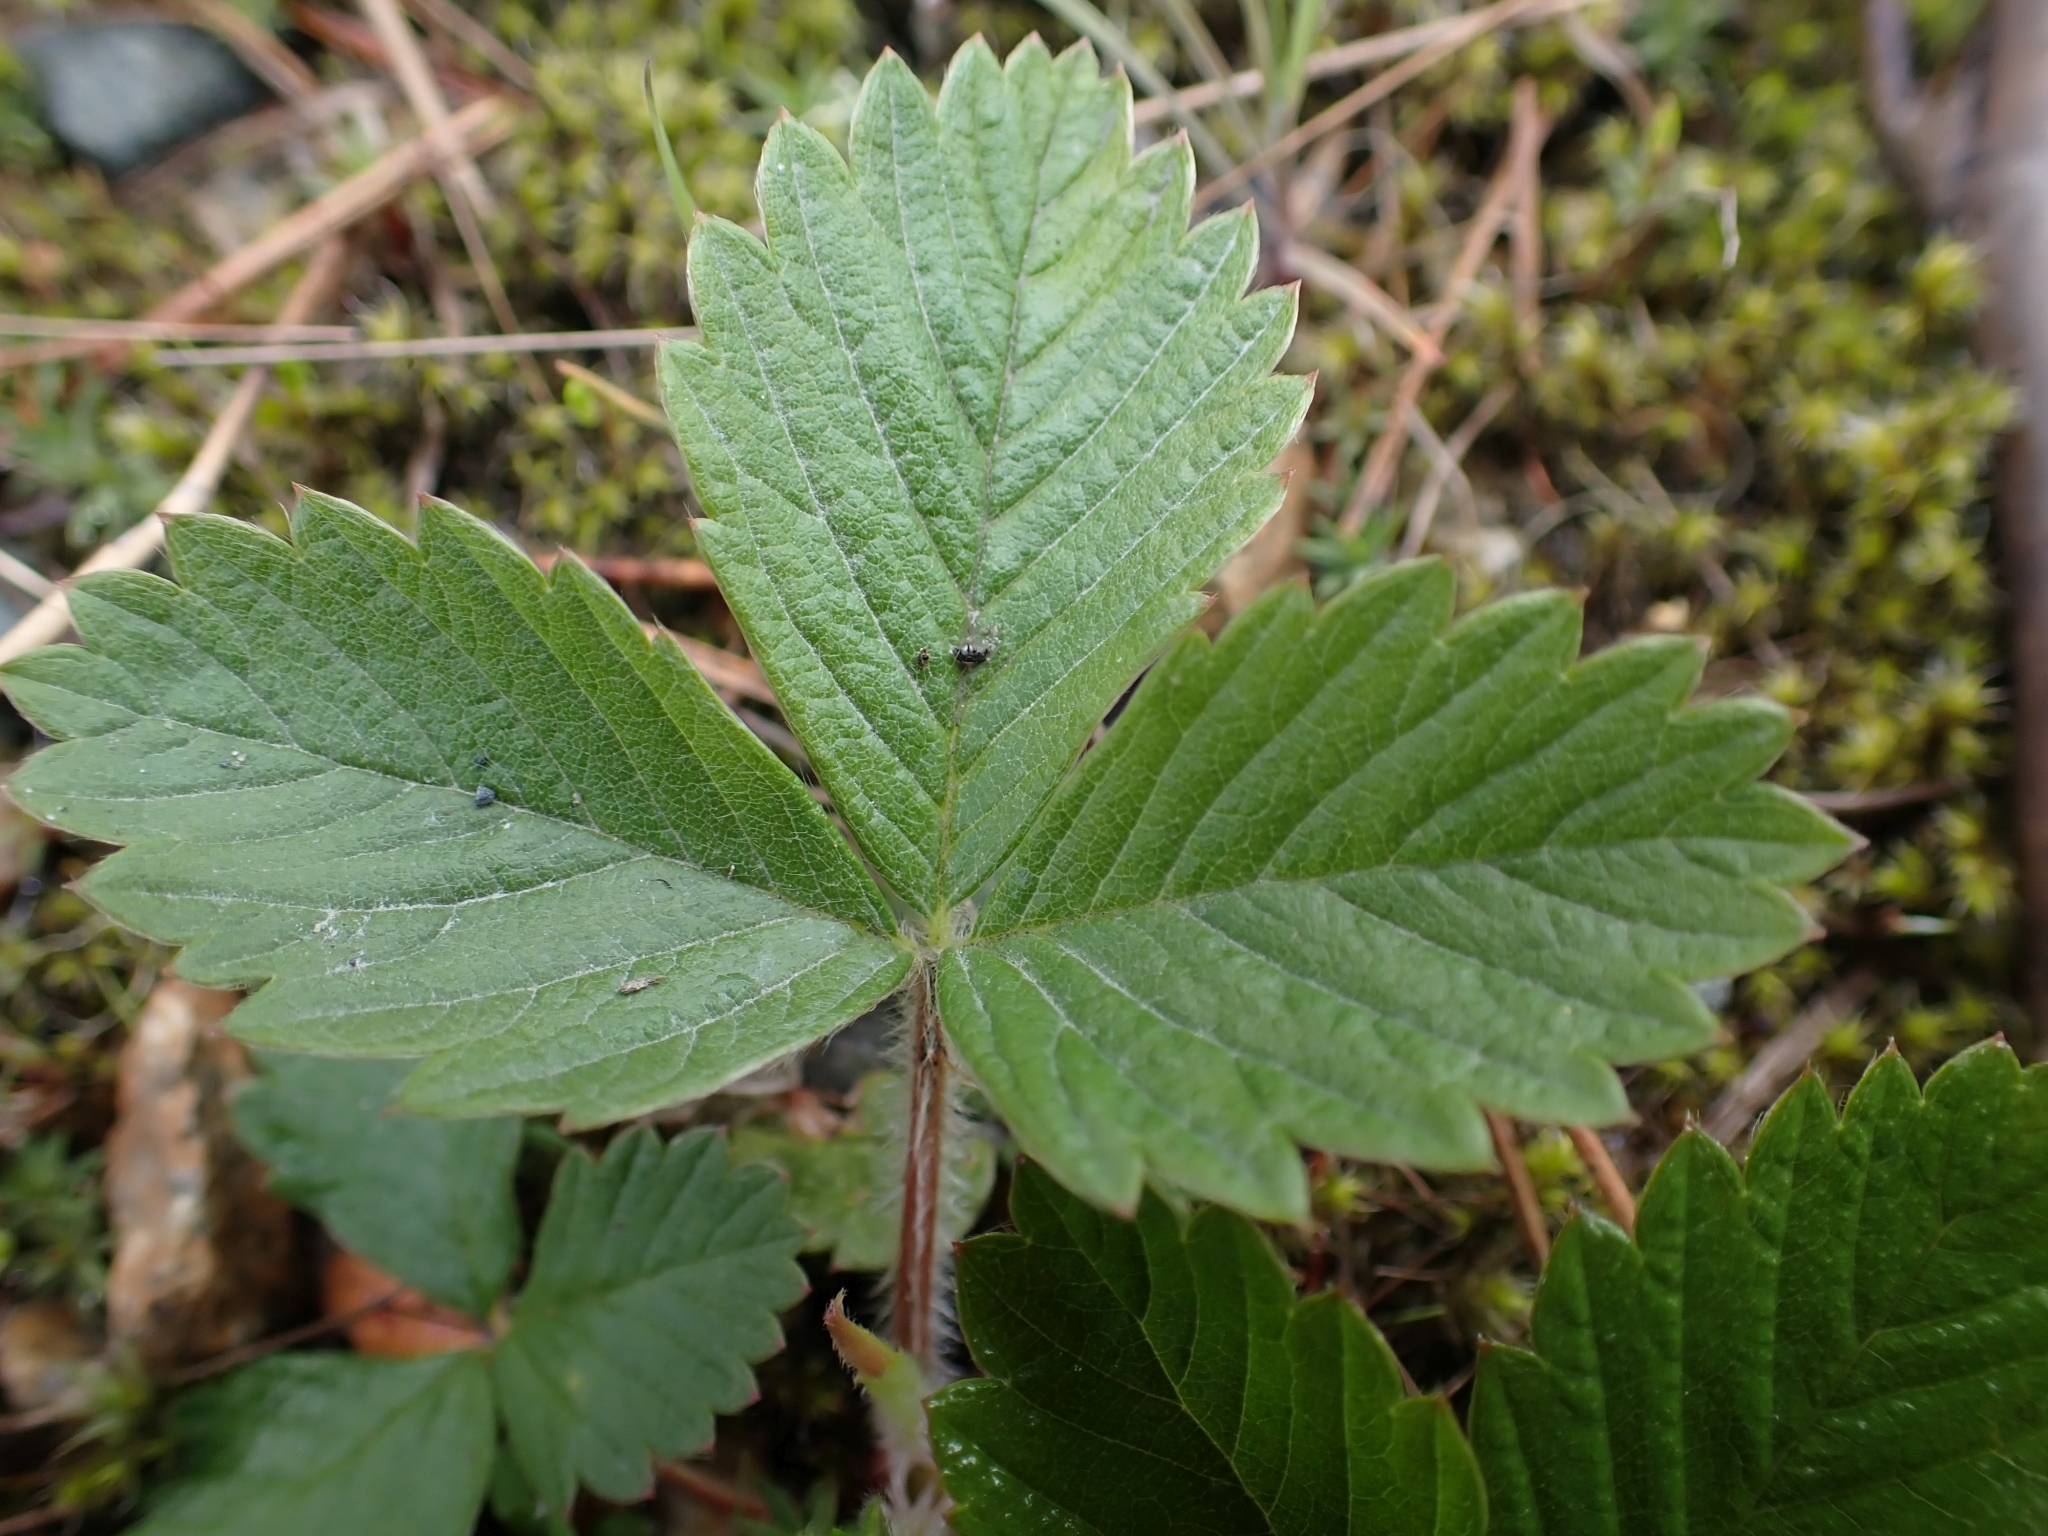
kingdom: Plantae
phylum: Tracheophyta
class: Magnoliopsida
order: Rosales
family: Rosaceae
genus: Fragaria
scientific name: Fragaria vesca
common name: Wild strawberry
